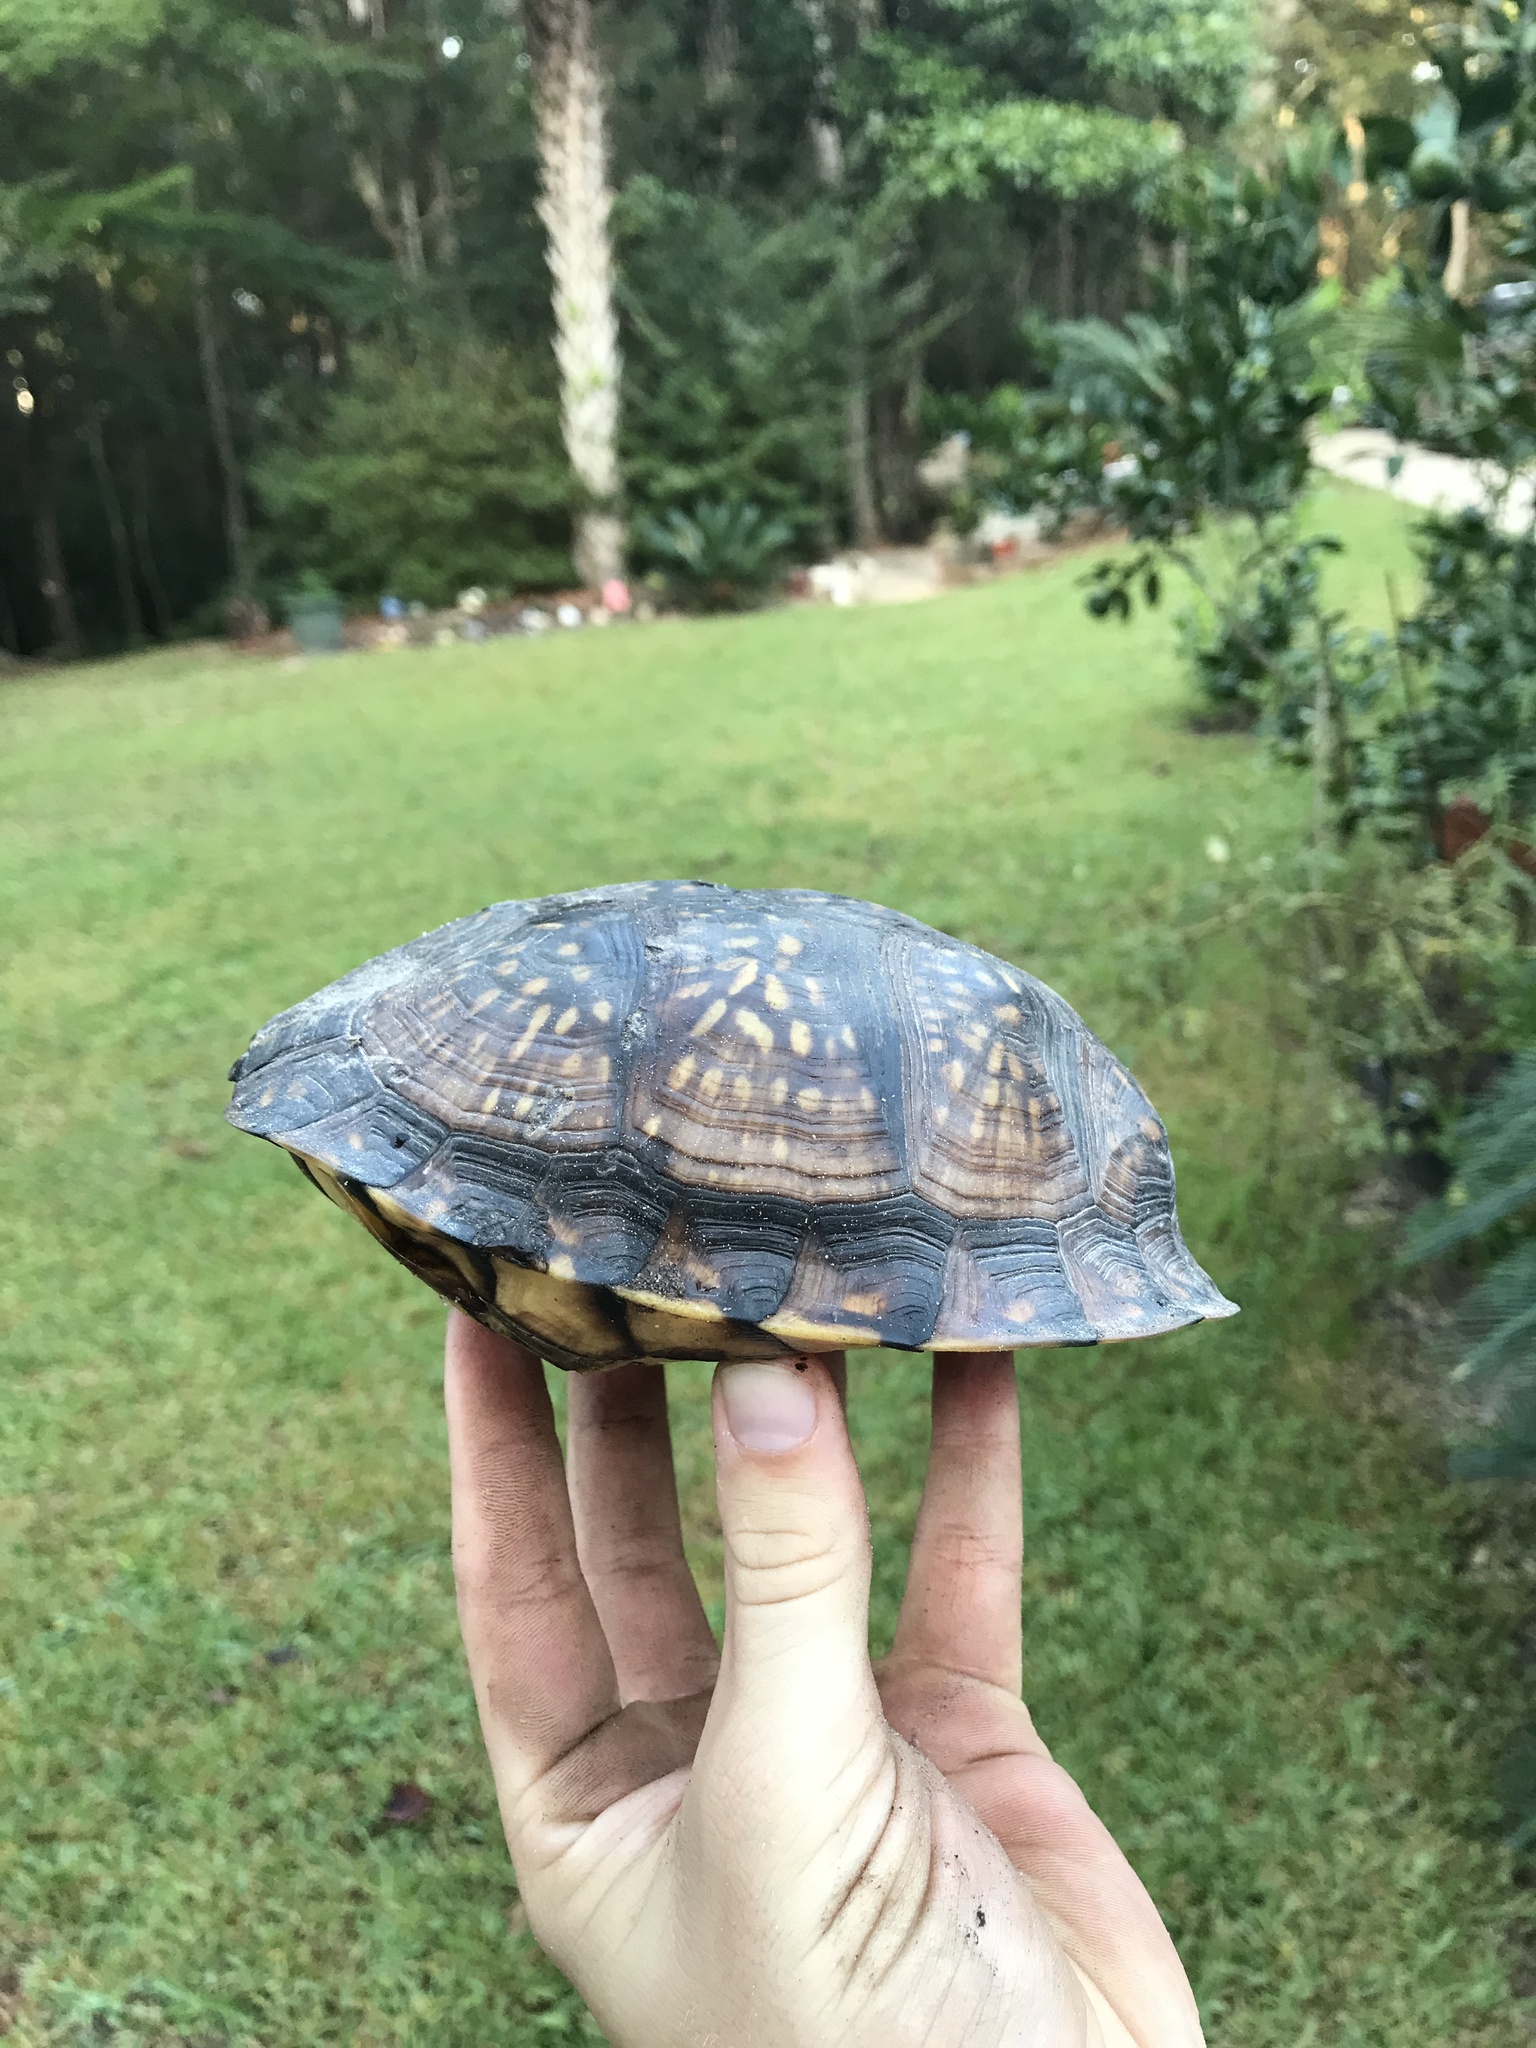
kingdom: Animalia
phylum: Chordata
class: Testudines
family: Emydidae
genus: Terrapene
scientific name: Terrapene carolina
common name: Common box turtle
